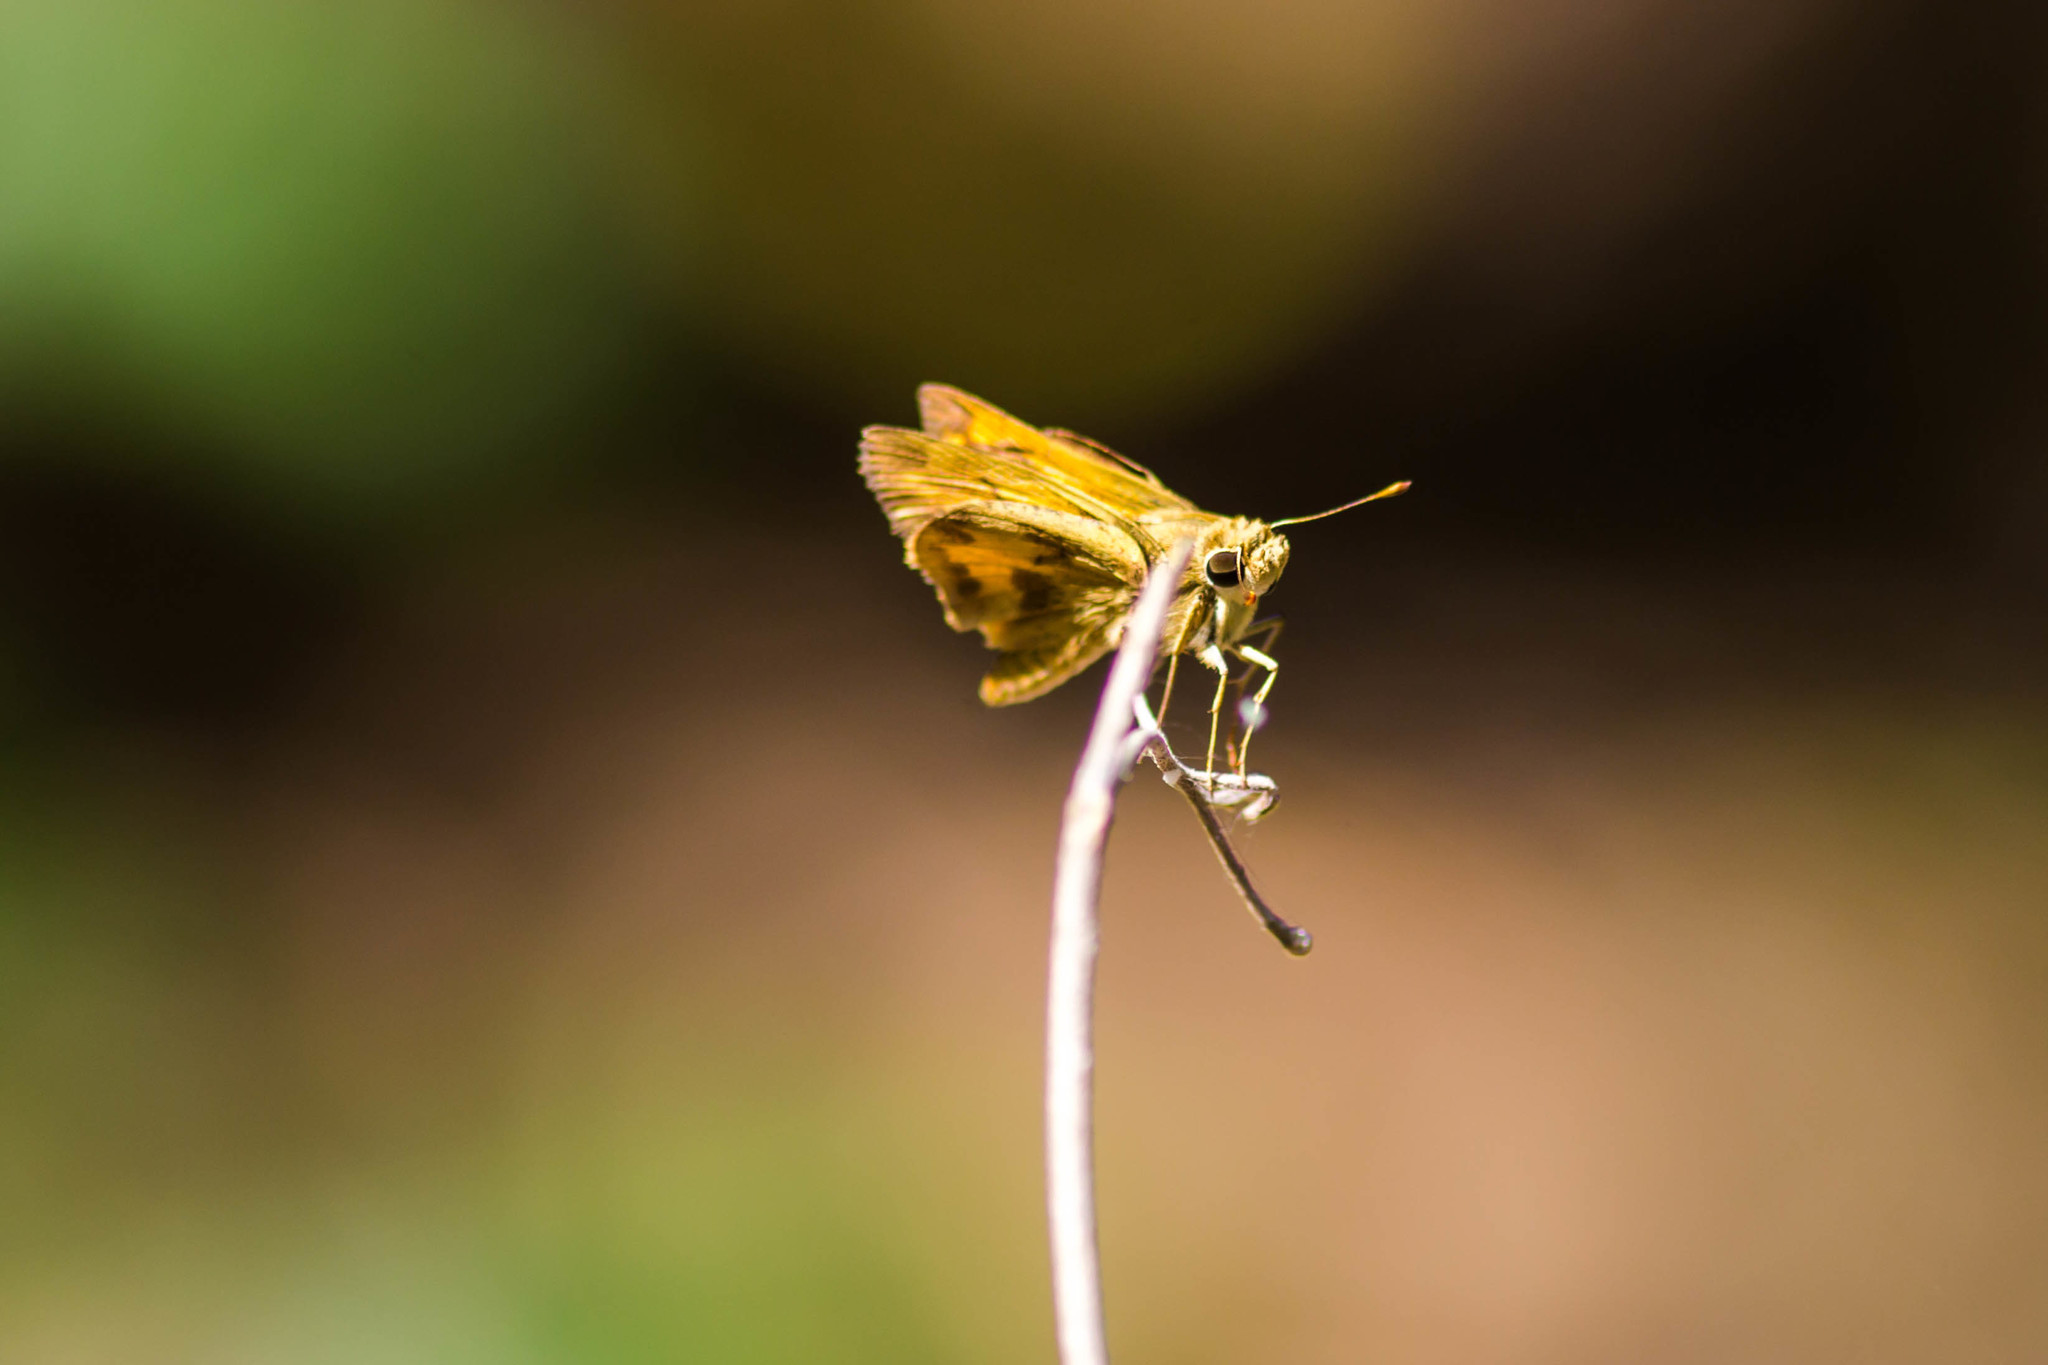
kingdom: Animalia
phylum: Arthropoda
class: Insecta
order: Lepidoptera
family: Hesperiidae
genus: Polites
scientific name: Polites vibex
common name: Whirlabout
